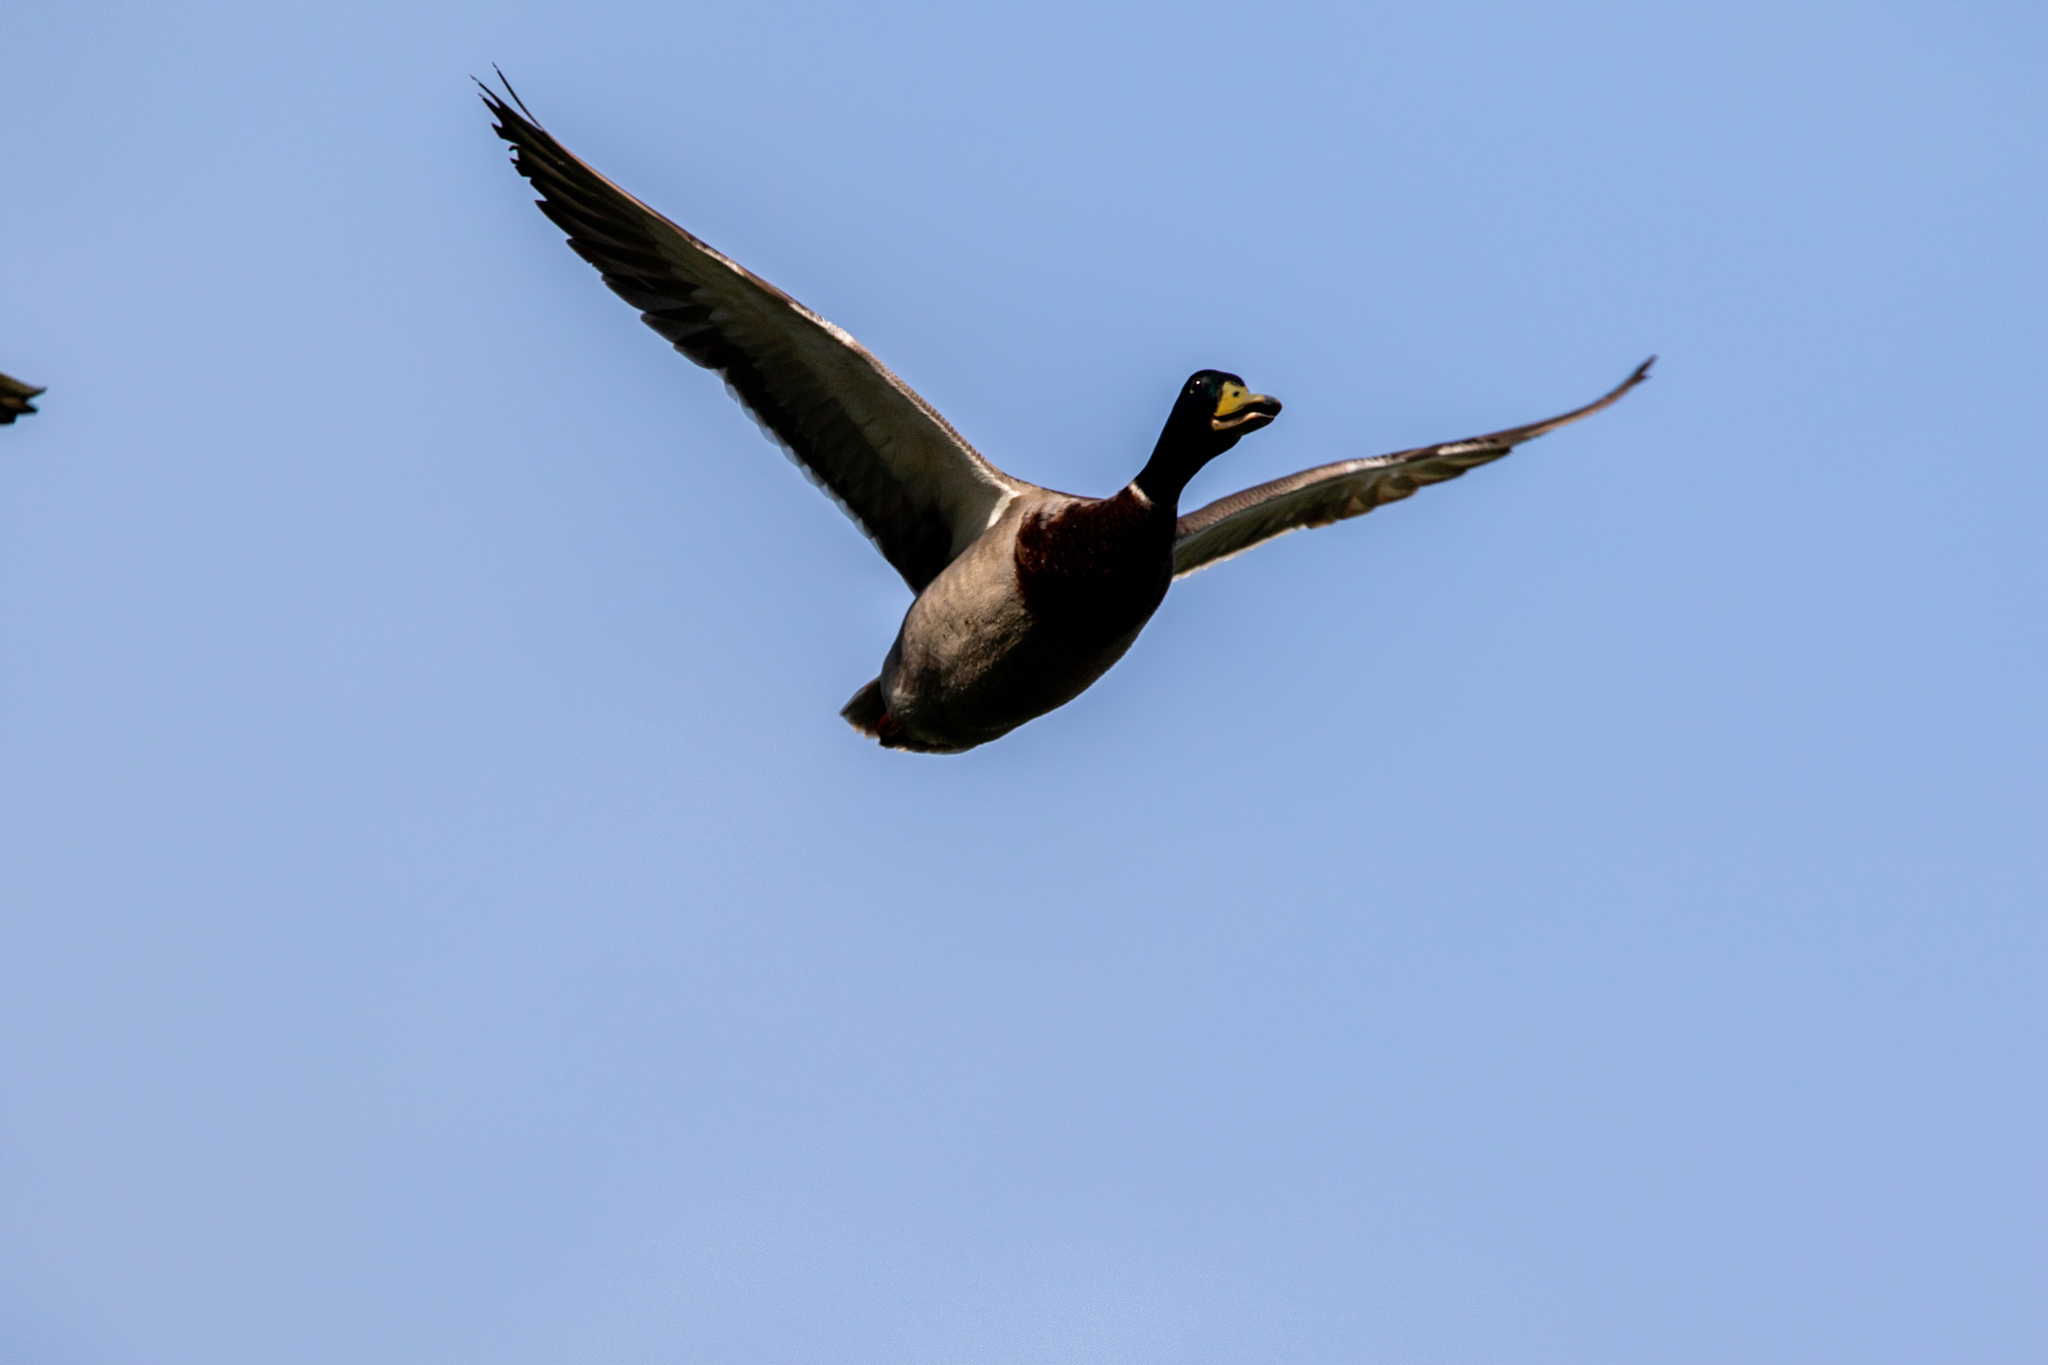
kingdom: Animalia
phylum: Chordata
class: Aves
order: Anseriformes
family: Anatidae
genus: Anas
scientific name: Anas platyrhynchos
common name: Mallard
